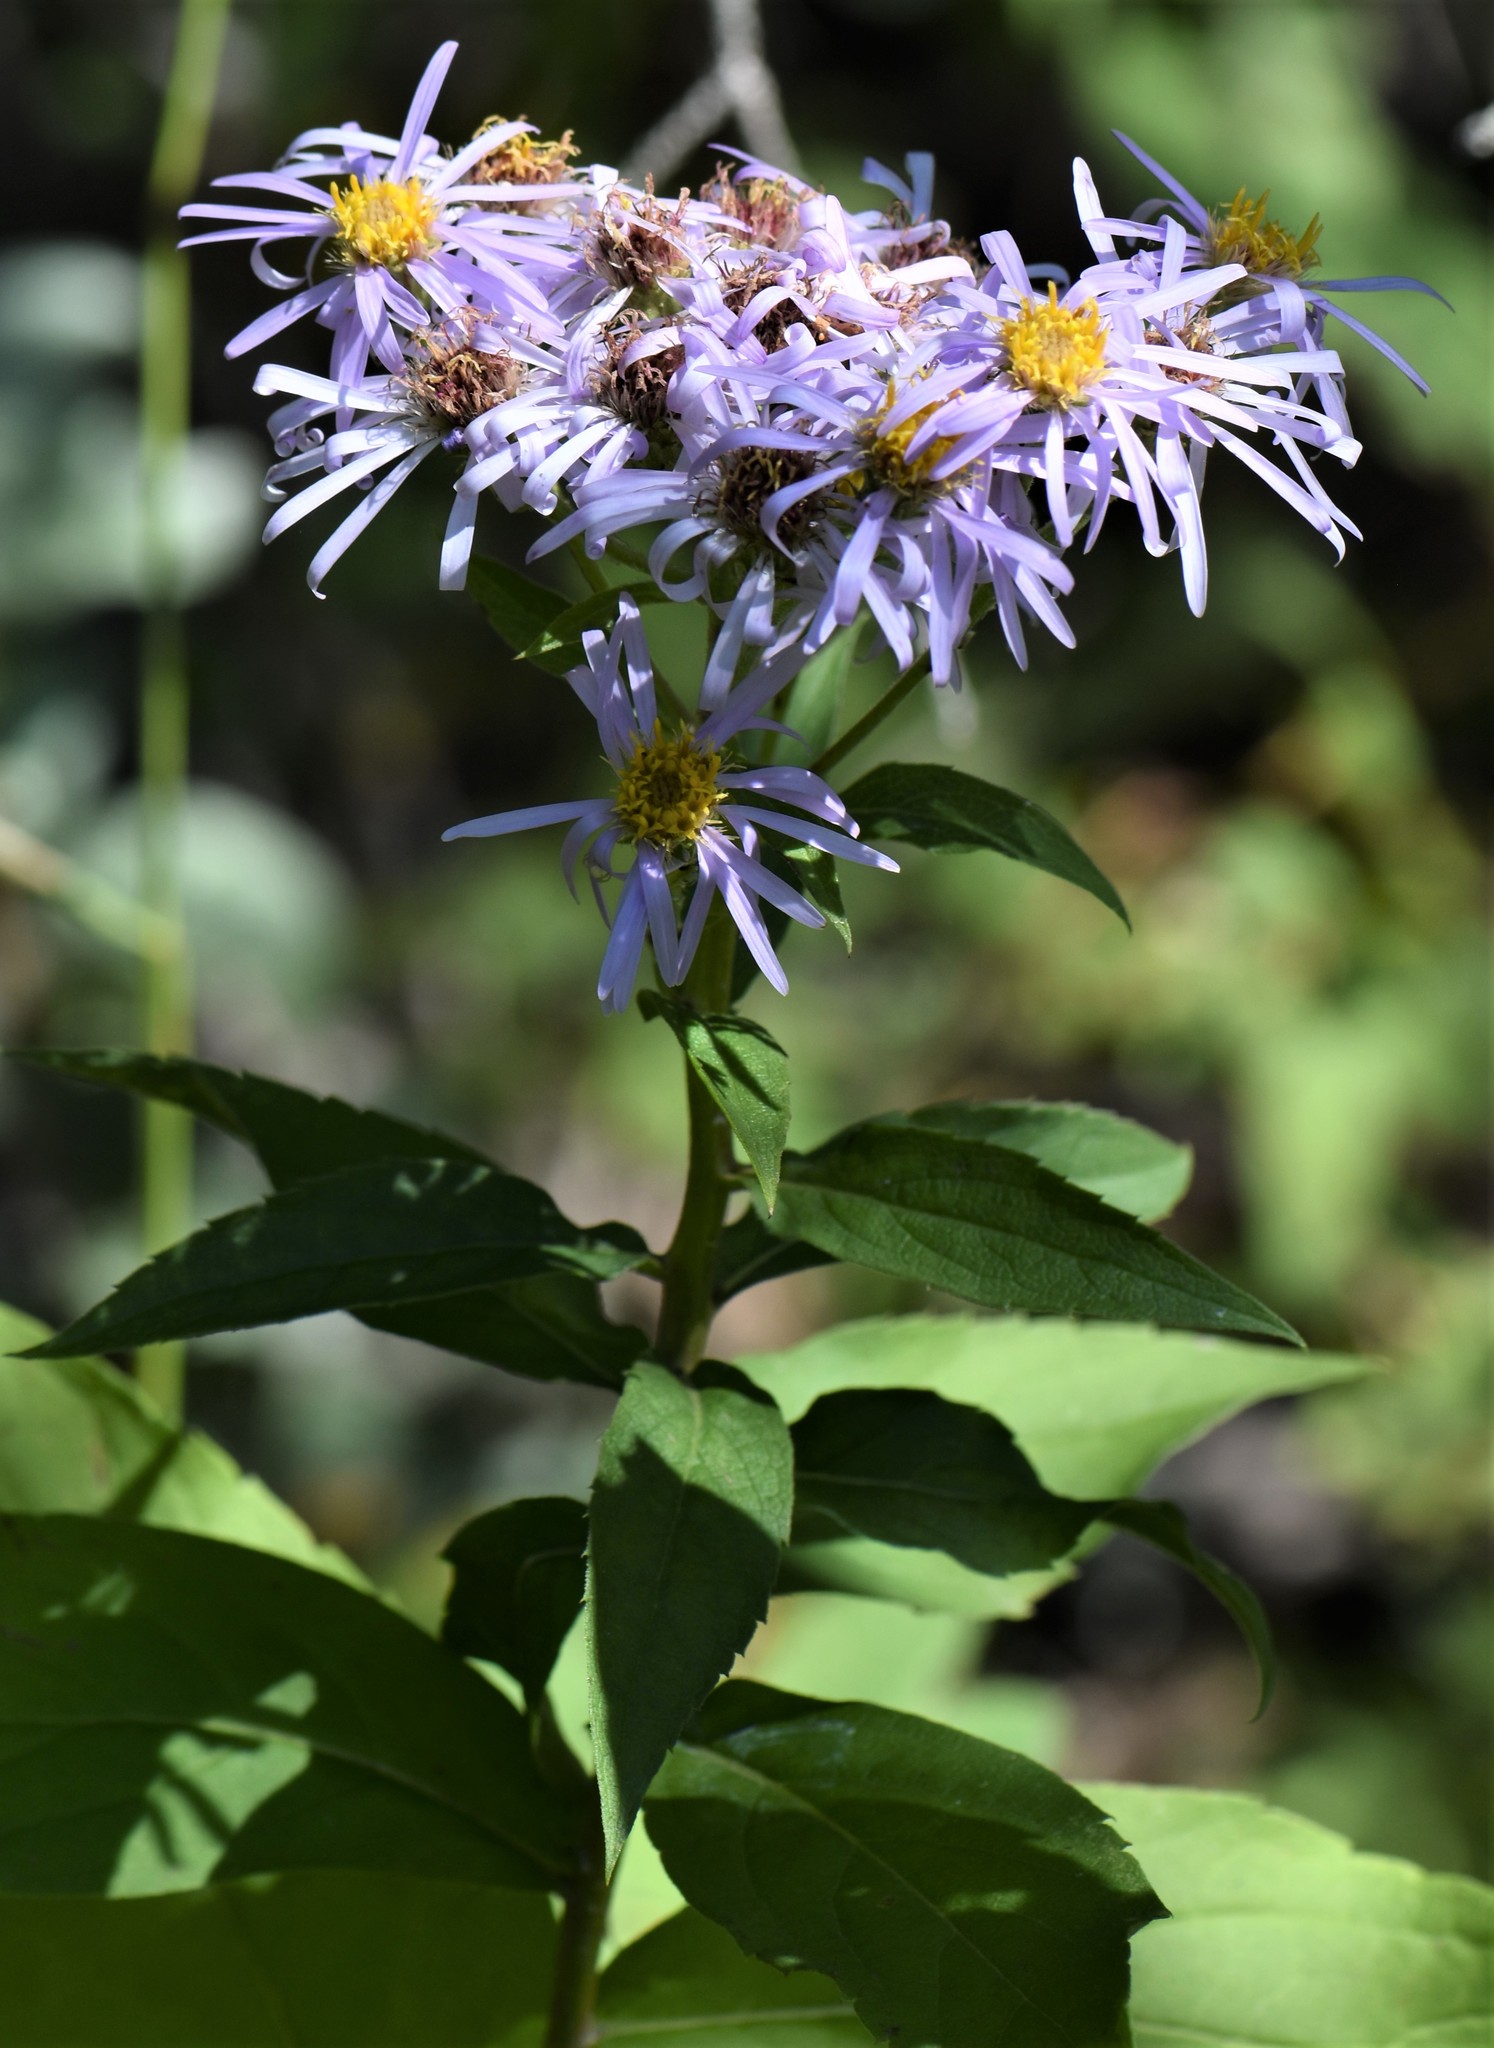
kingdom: Plantae
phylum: Tracheophyta
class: Magnoliopsida
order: Asterales
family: Asteraceae
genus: Eurybia
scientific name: Eurybia conspicua
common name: Showy aster
